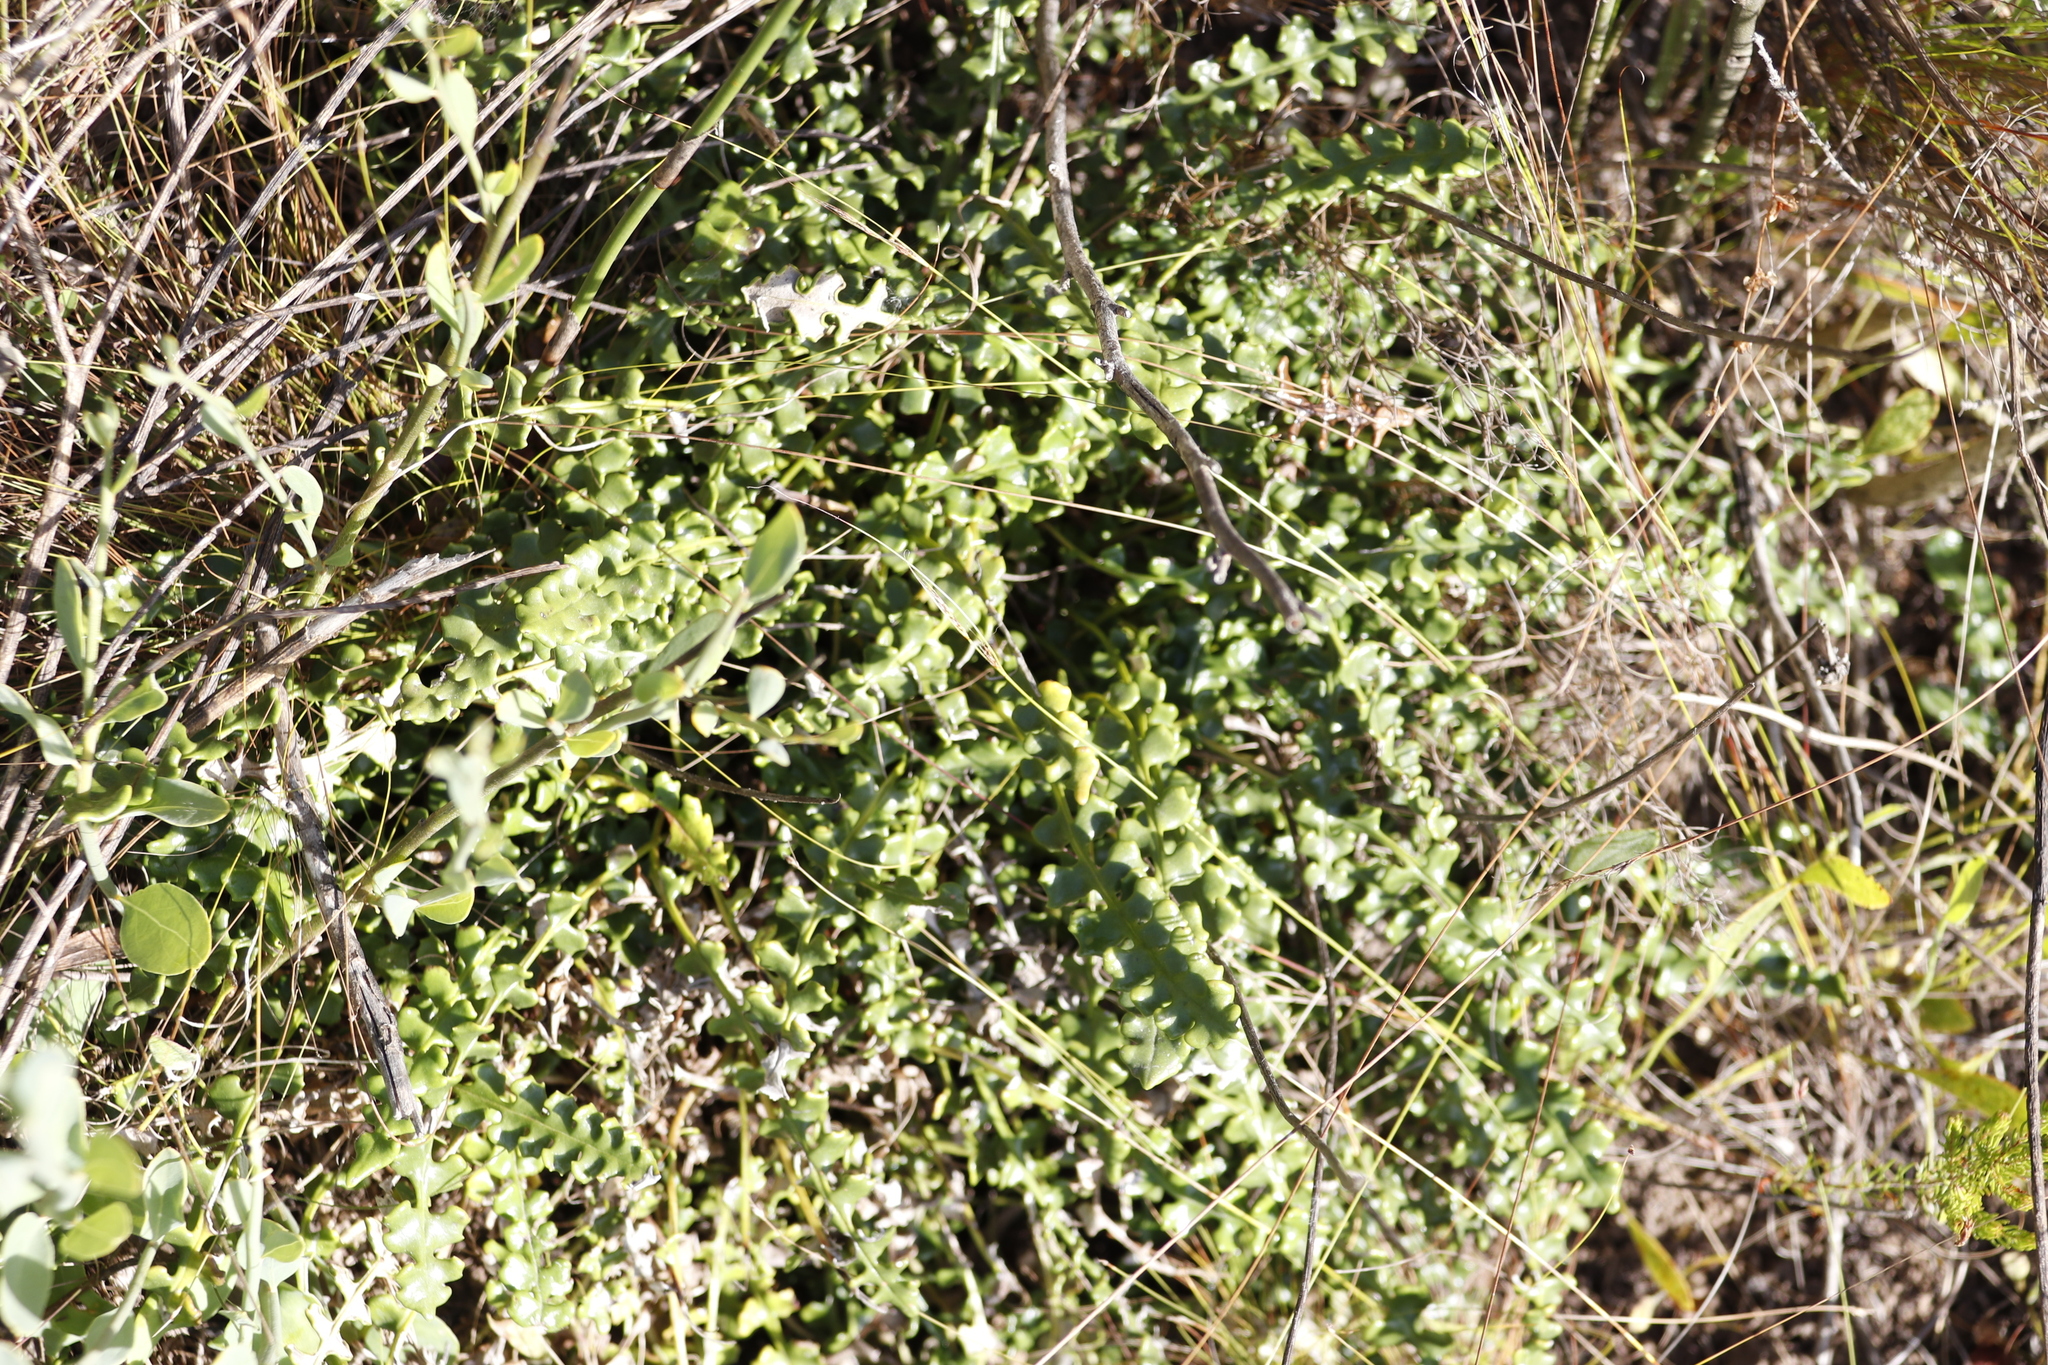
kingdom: Plantae
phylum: Tracheophyta
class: Magnoliopsida
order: Asterales
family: Asteraceae
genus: Gerbera
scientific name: Gerbera linnaei
